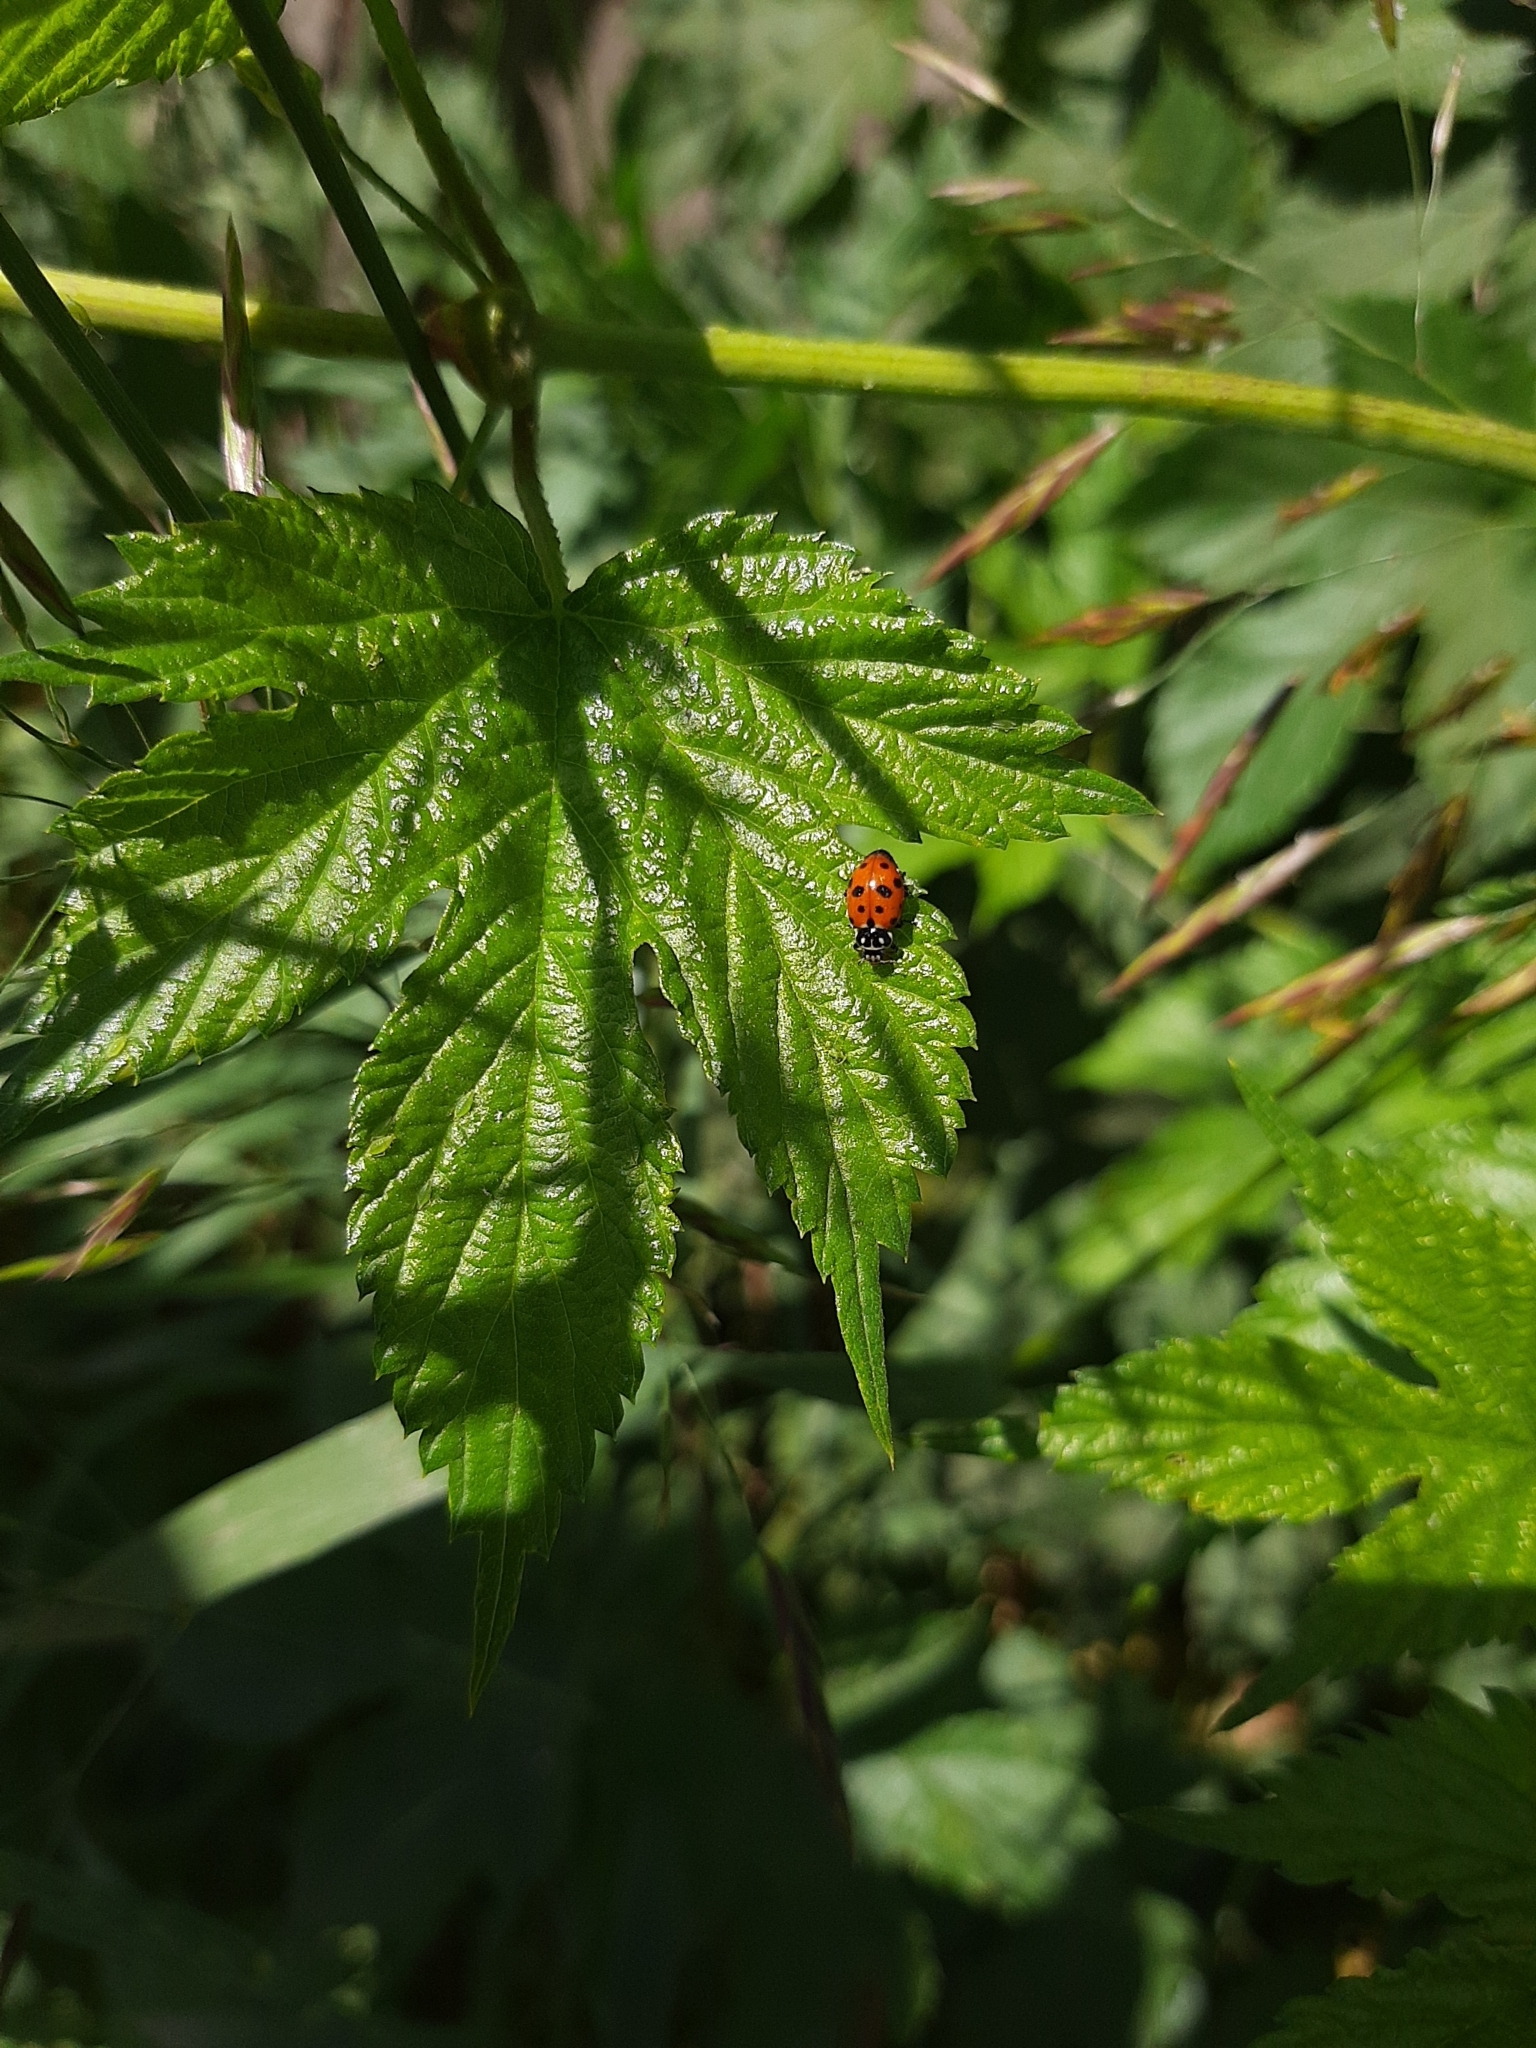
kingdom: Animalia
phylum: Arthropoda
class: Insecta
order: Coleoptera
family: Coccinellidae
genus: Hippodamia
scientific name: Hippodamia variegata
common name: Ladybird beetle
